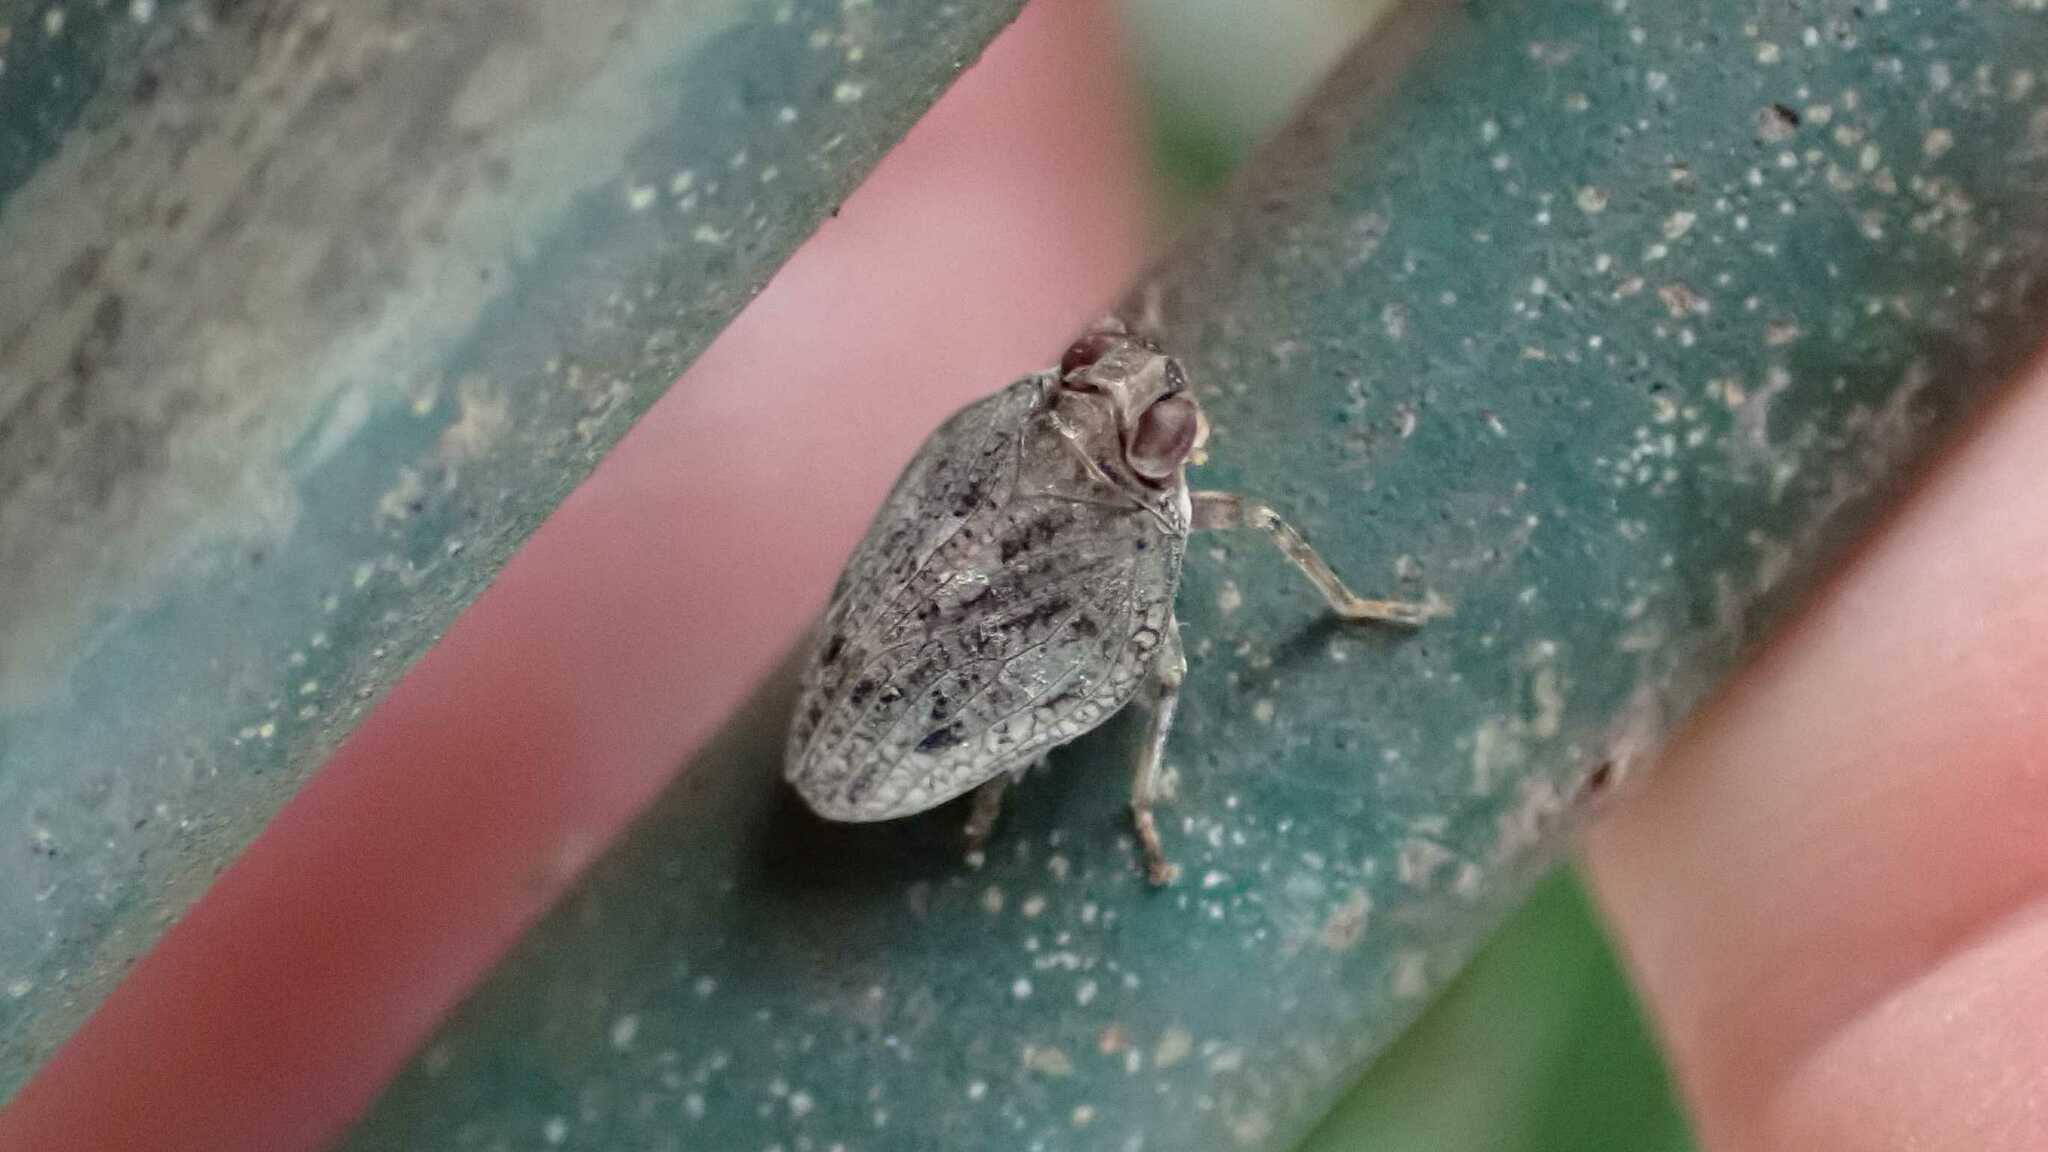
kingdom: Animalia
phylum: Arthropoda
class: Insecta
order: Hemiptera
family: Issidae
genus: Issus
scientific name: Issus coleoptratus
